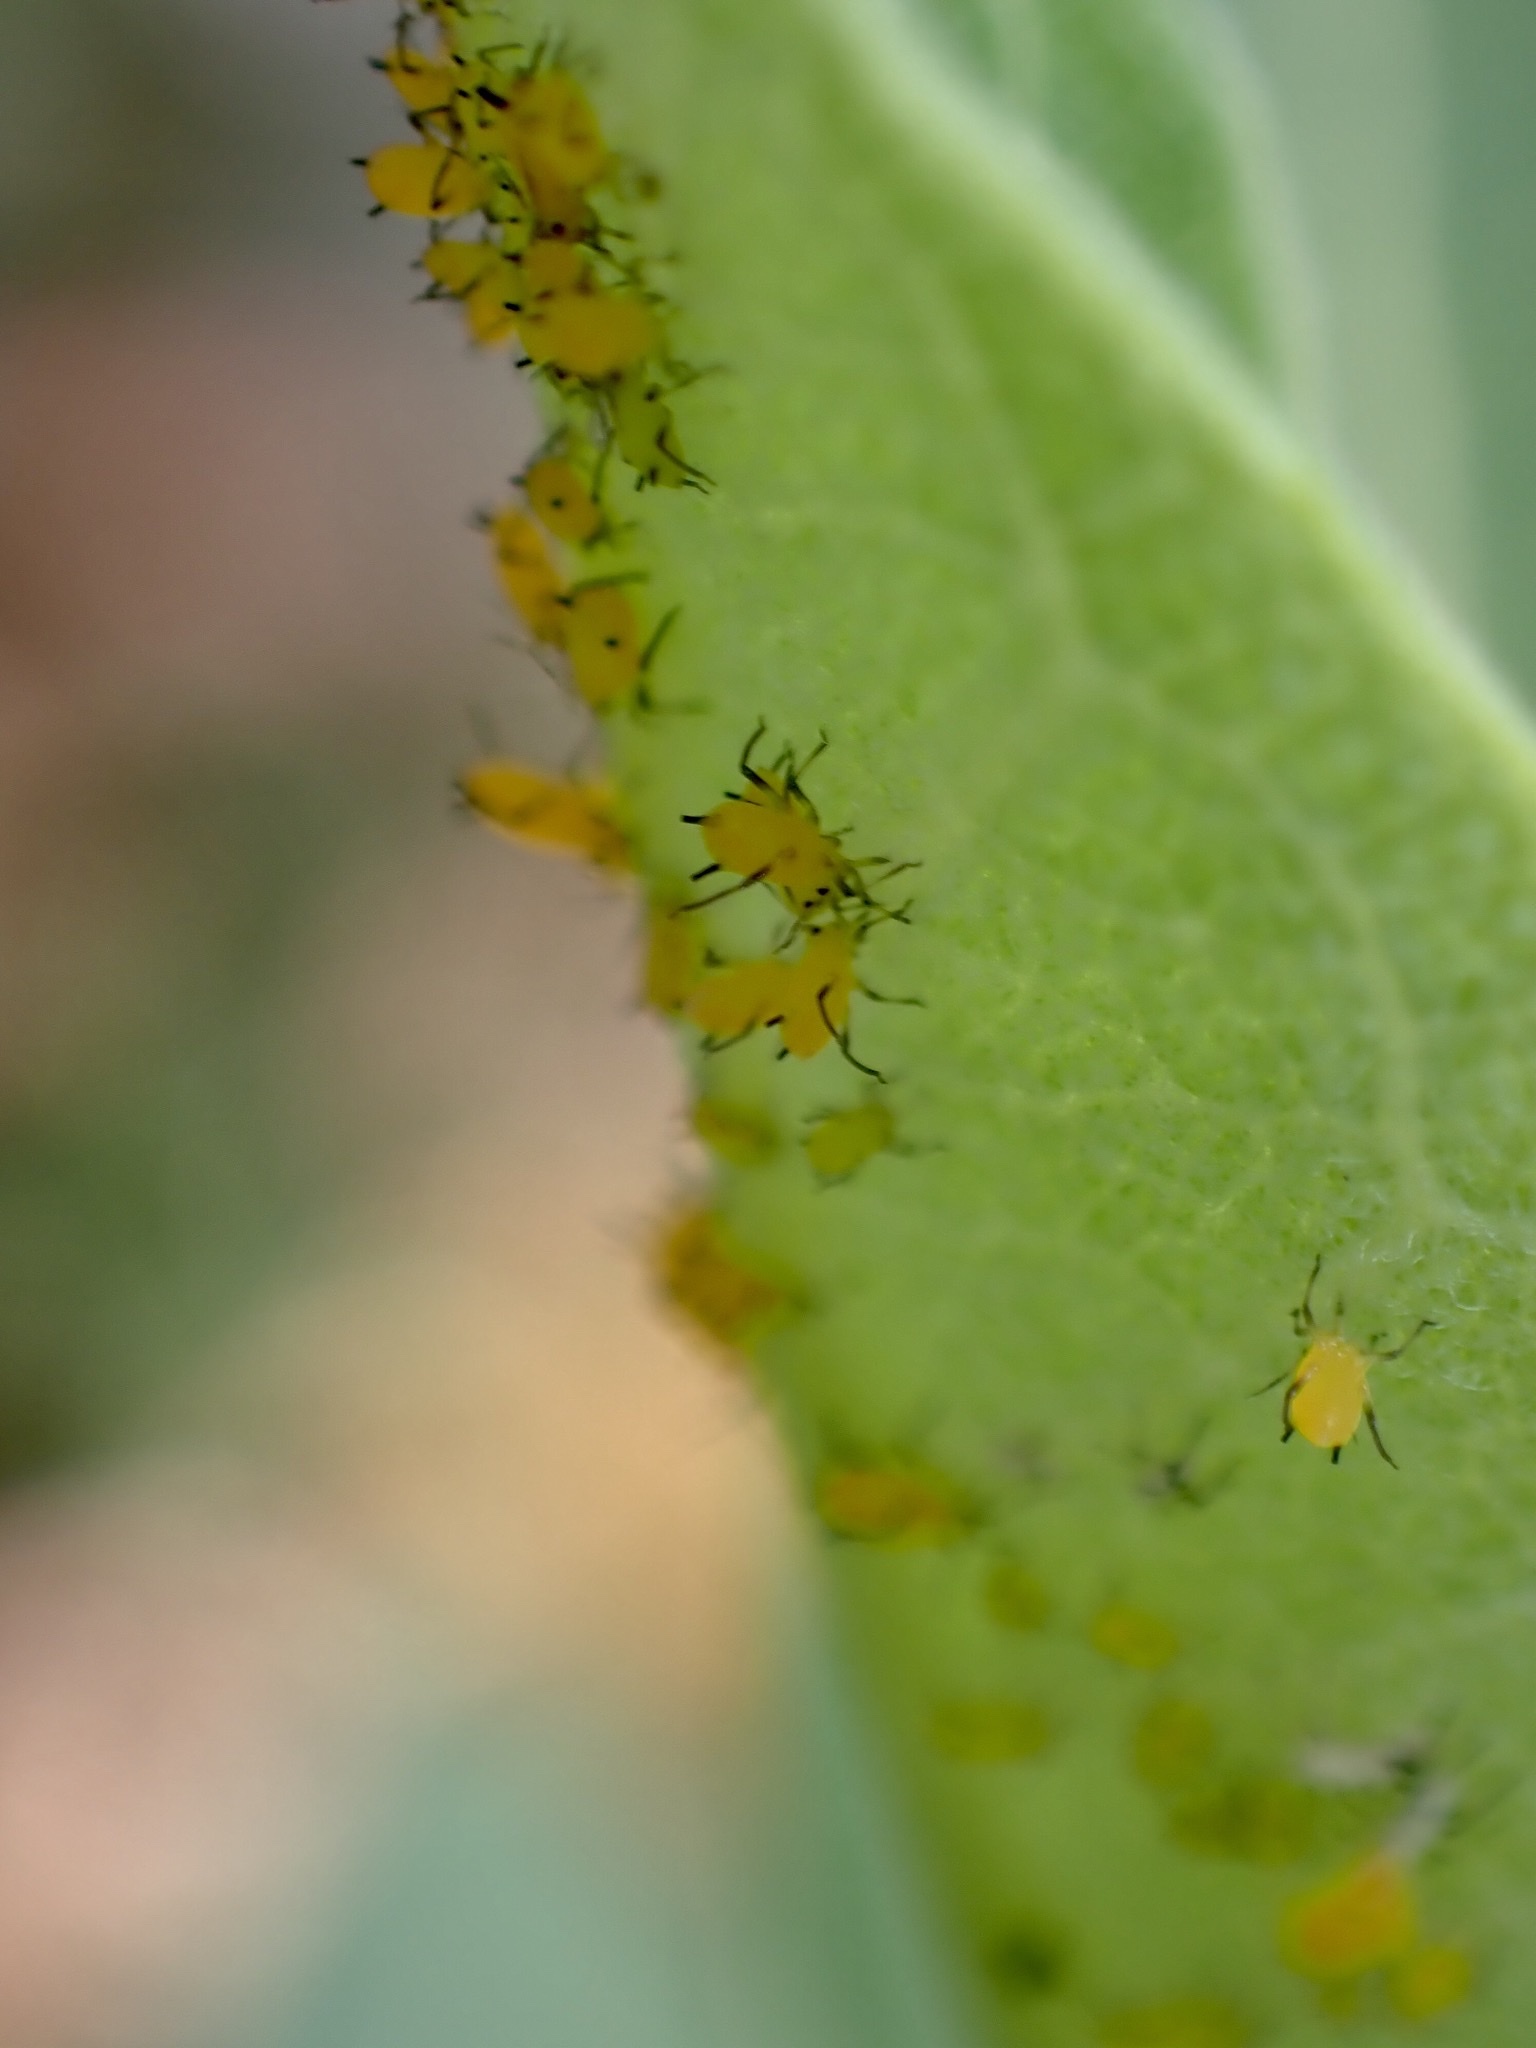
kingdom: Animalia
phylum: Arthropoda
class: Insecta
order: Hemiptera
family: Aphididae
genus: Aphis
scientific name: Aphis nerii
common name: Oleander aphid
